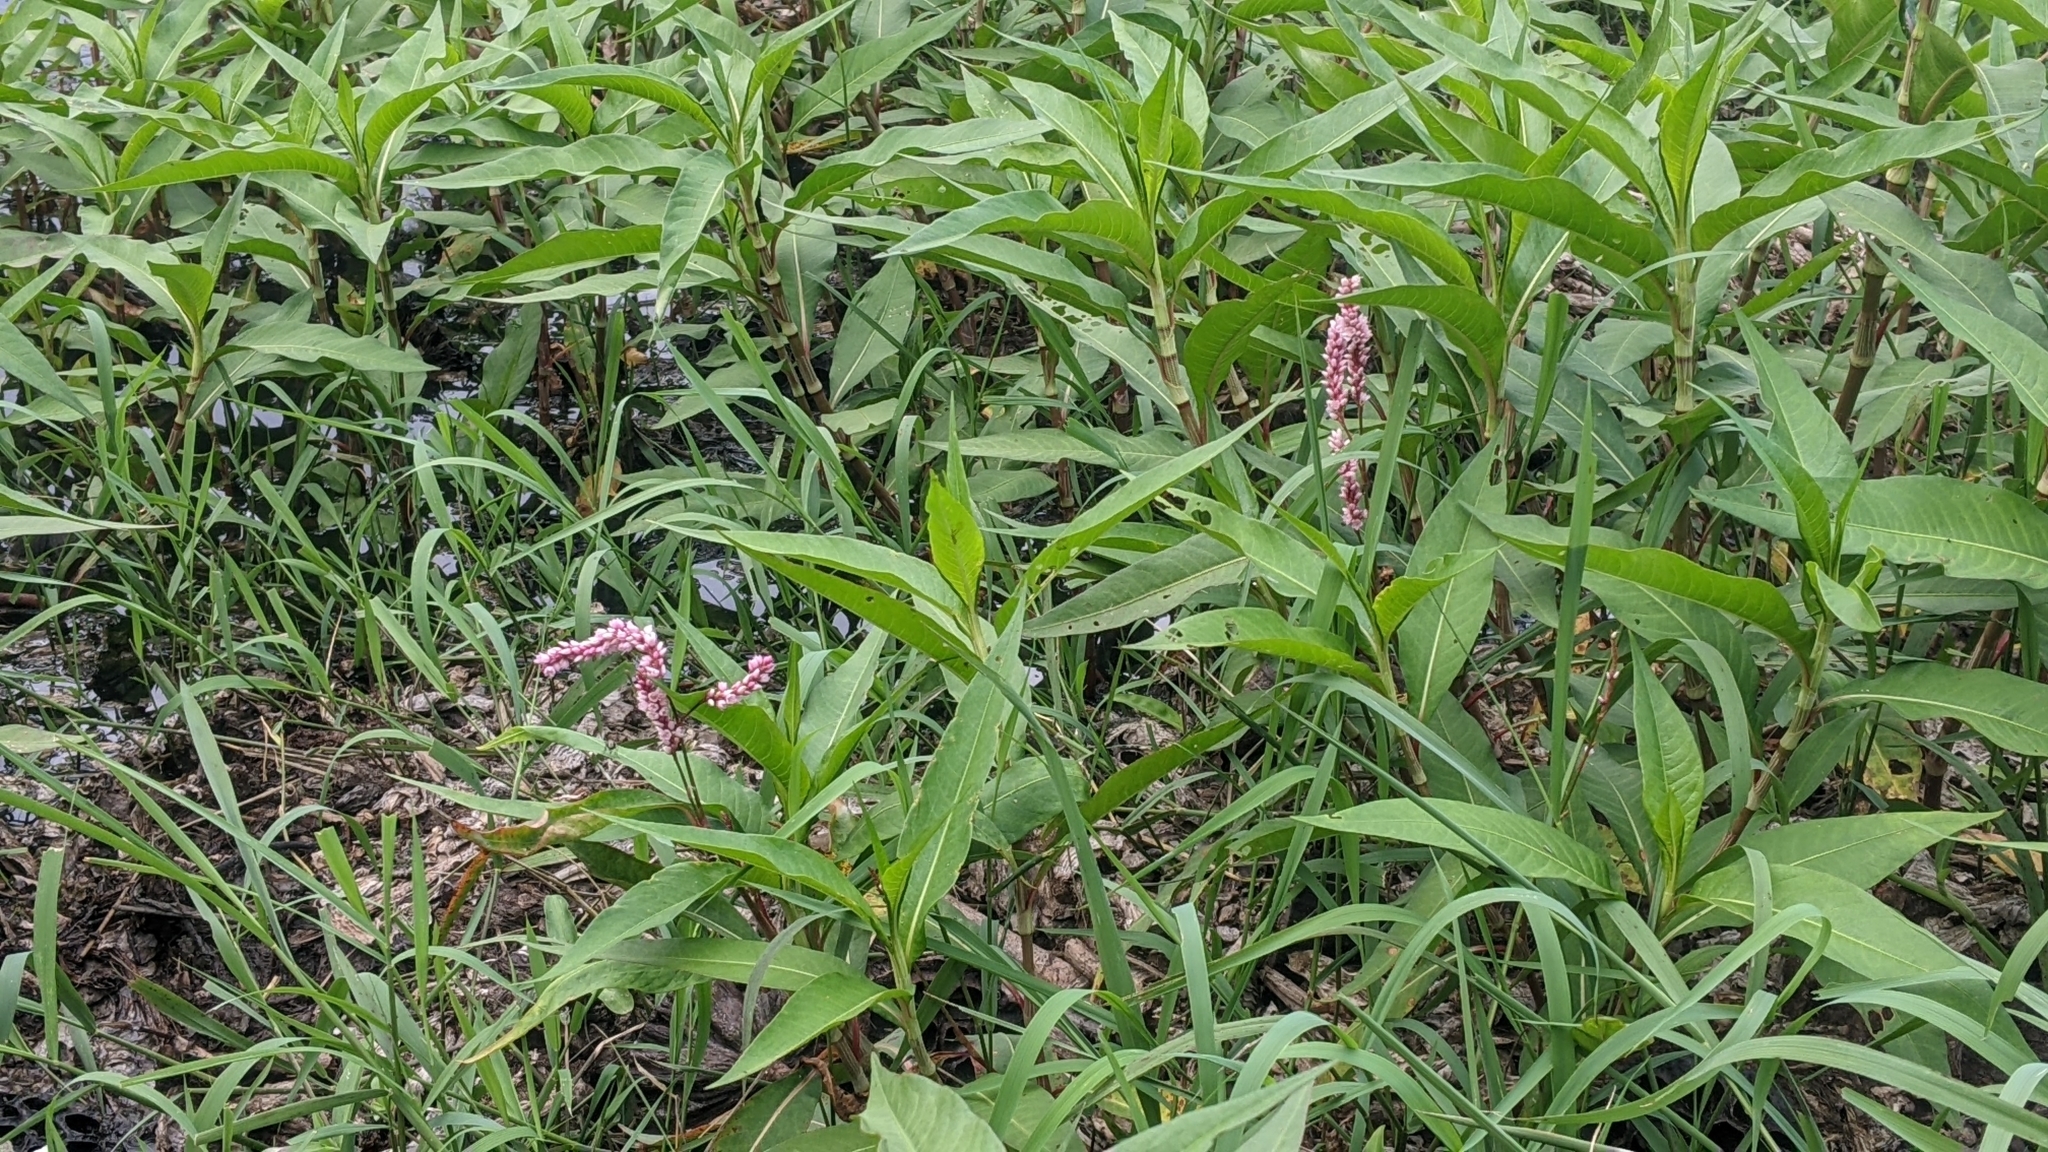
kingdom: Plantae
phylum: Tracheophyta
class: Magnoliopsida
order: Caryophyllales
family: Polygonaceae
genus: Persicaria
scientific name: Persicaria glabra
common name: Denseflower knotweed
